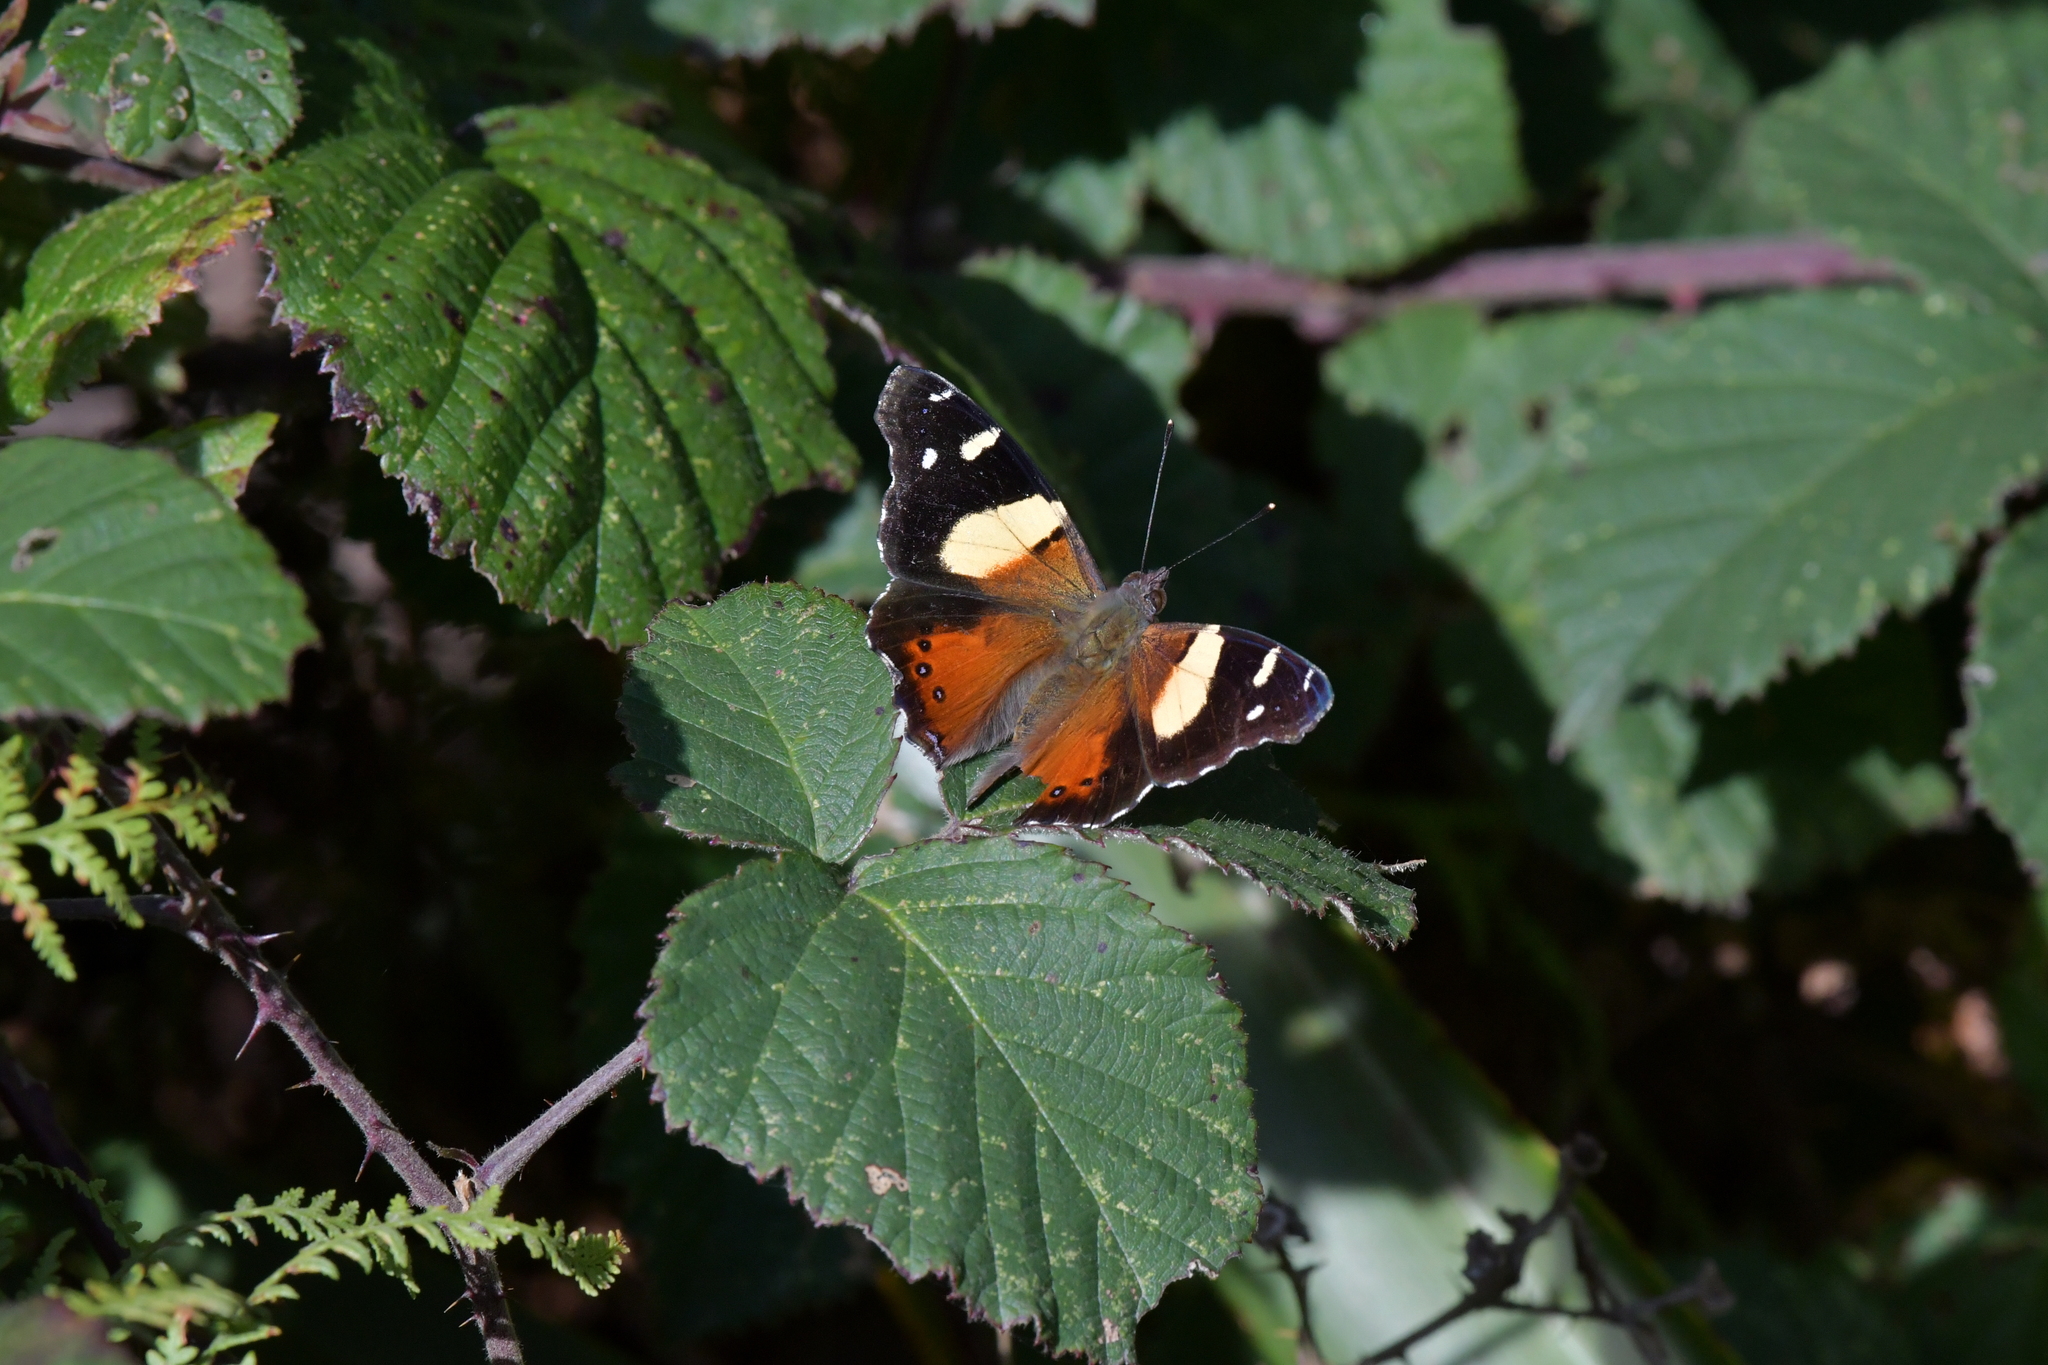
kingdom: Animalia
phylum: Arthropoda
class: Insecta
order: Lepidoptera
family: Nymphalidae
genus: Vanessa
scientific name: Vanessa itea
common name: Yellow admiral
